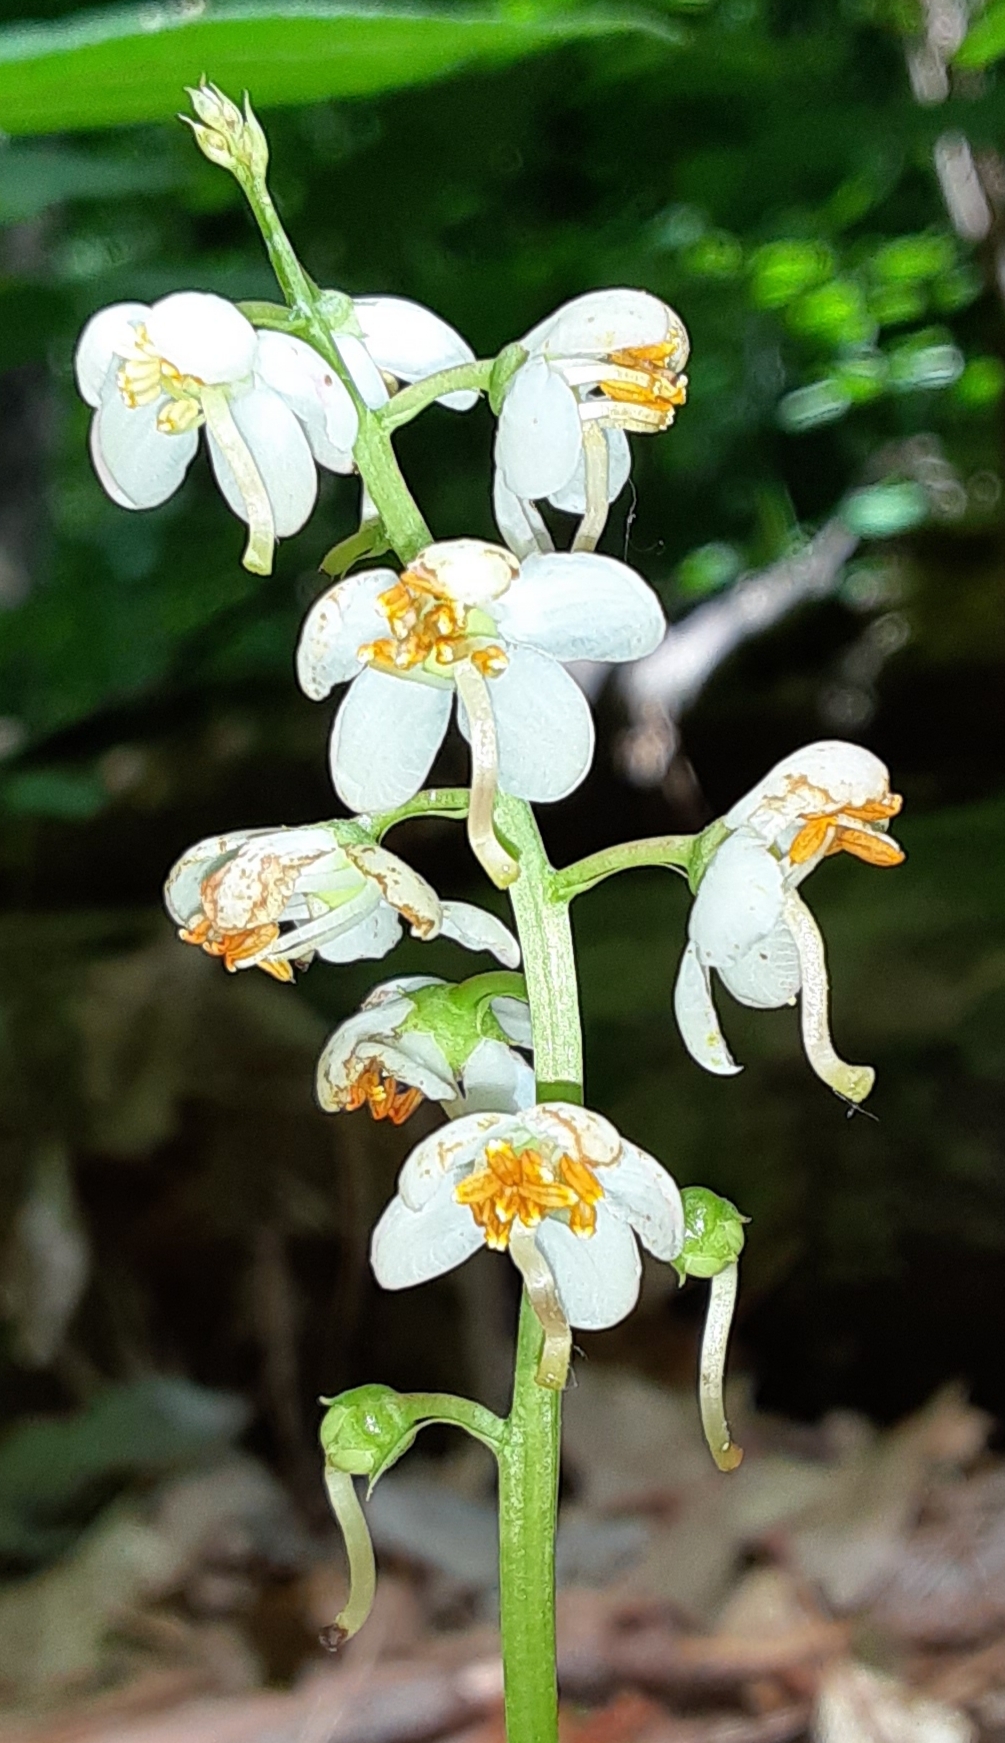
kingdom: Plantae
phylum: Tracheophyta
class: Magnoliopsida
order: Ericales
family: Ericaceae
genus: Pyrola
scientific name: Pyrola elliptica
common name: Shinleaf
